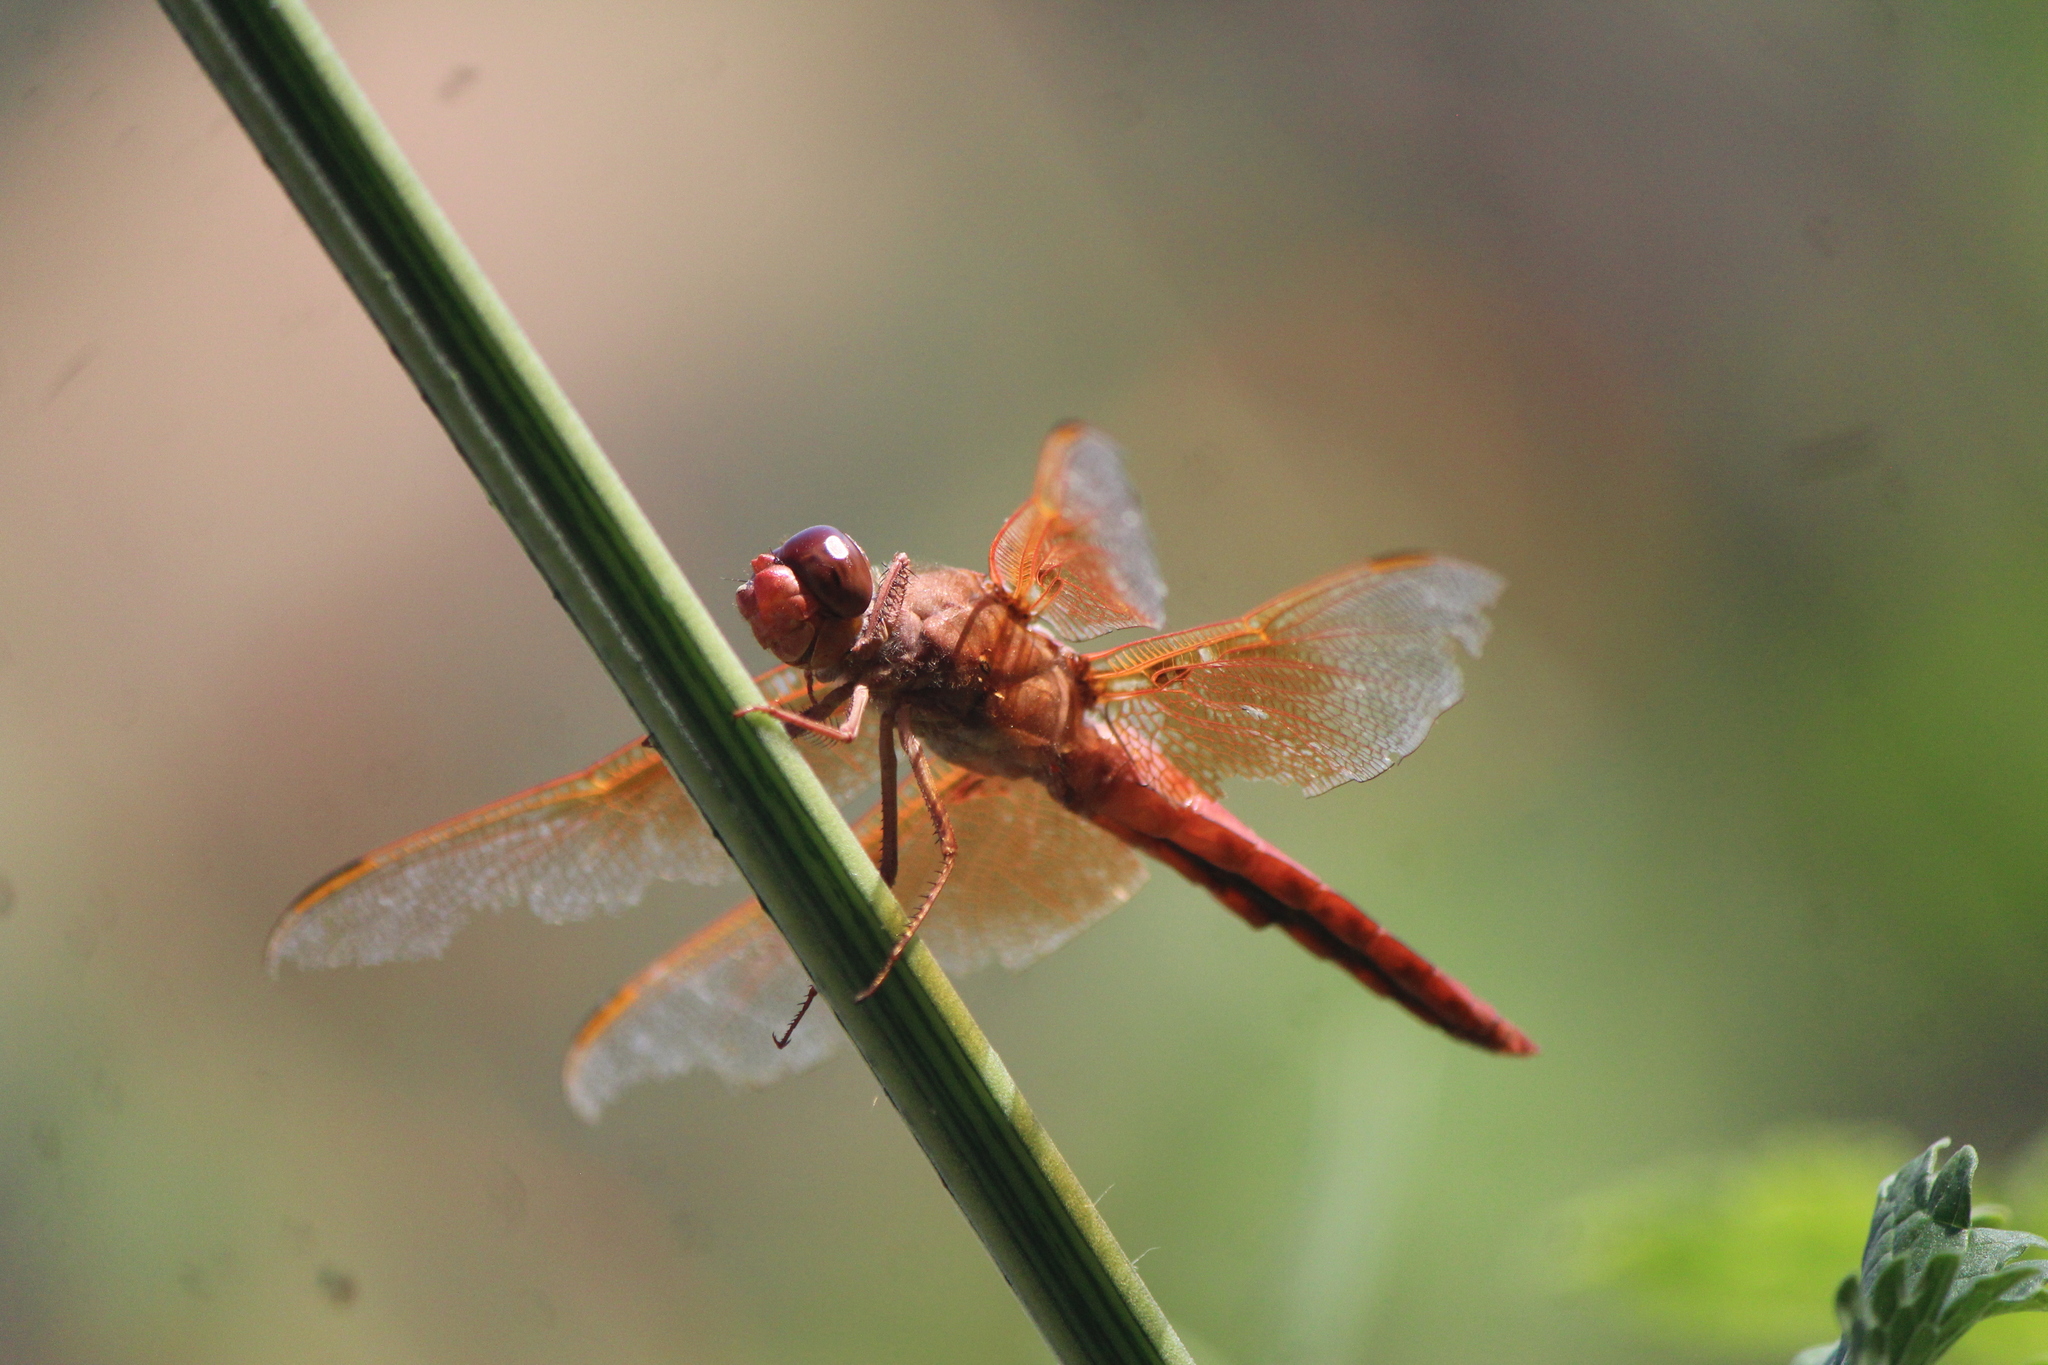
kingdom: Animalia
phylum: Arthropoda
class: Insecta
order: Odonata
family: Libellulidae
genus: Libellula
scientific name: Libellula saturata
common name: Flame skimmer
